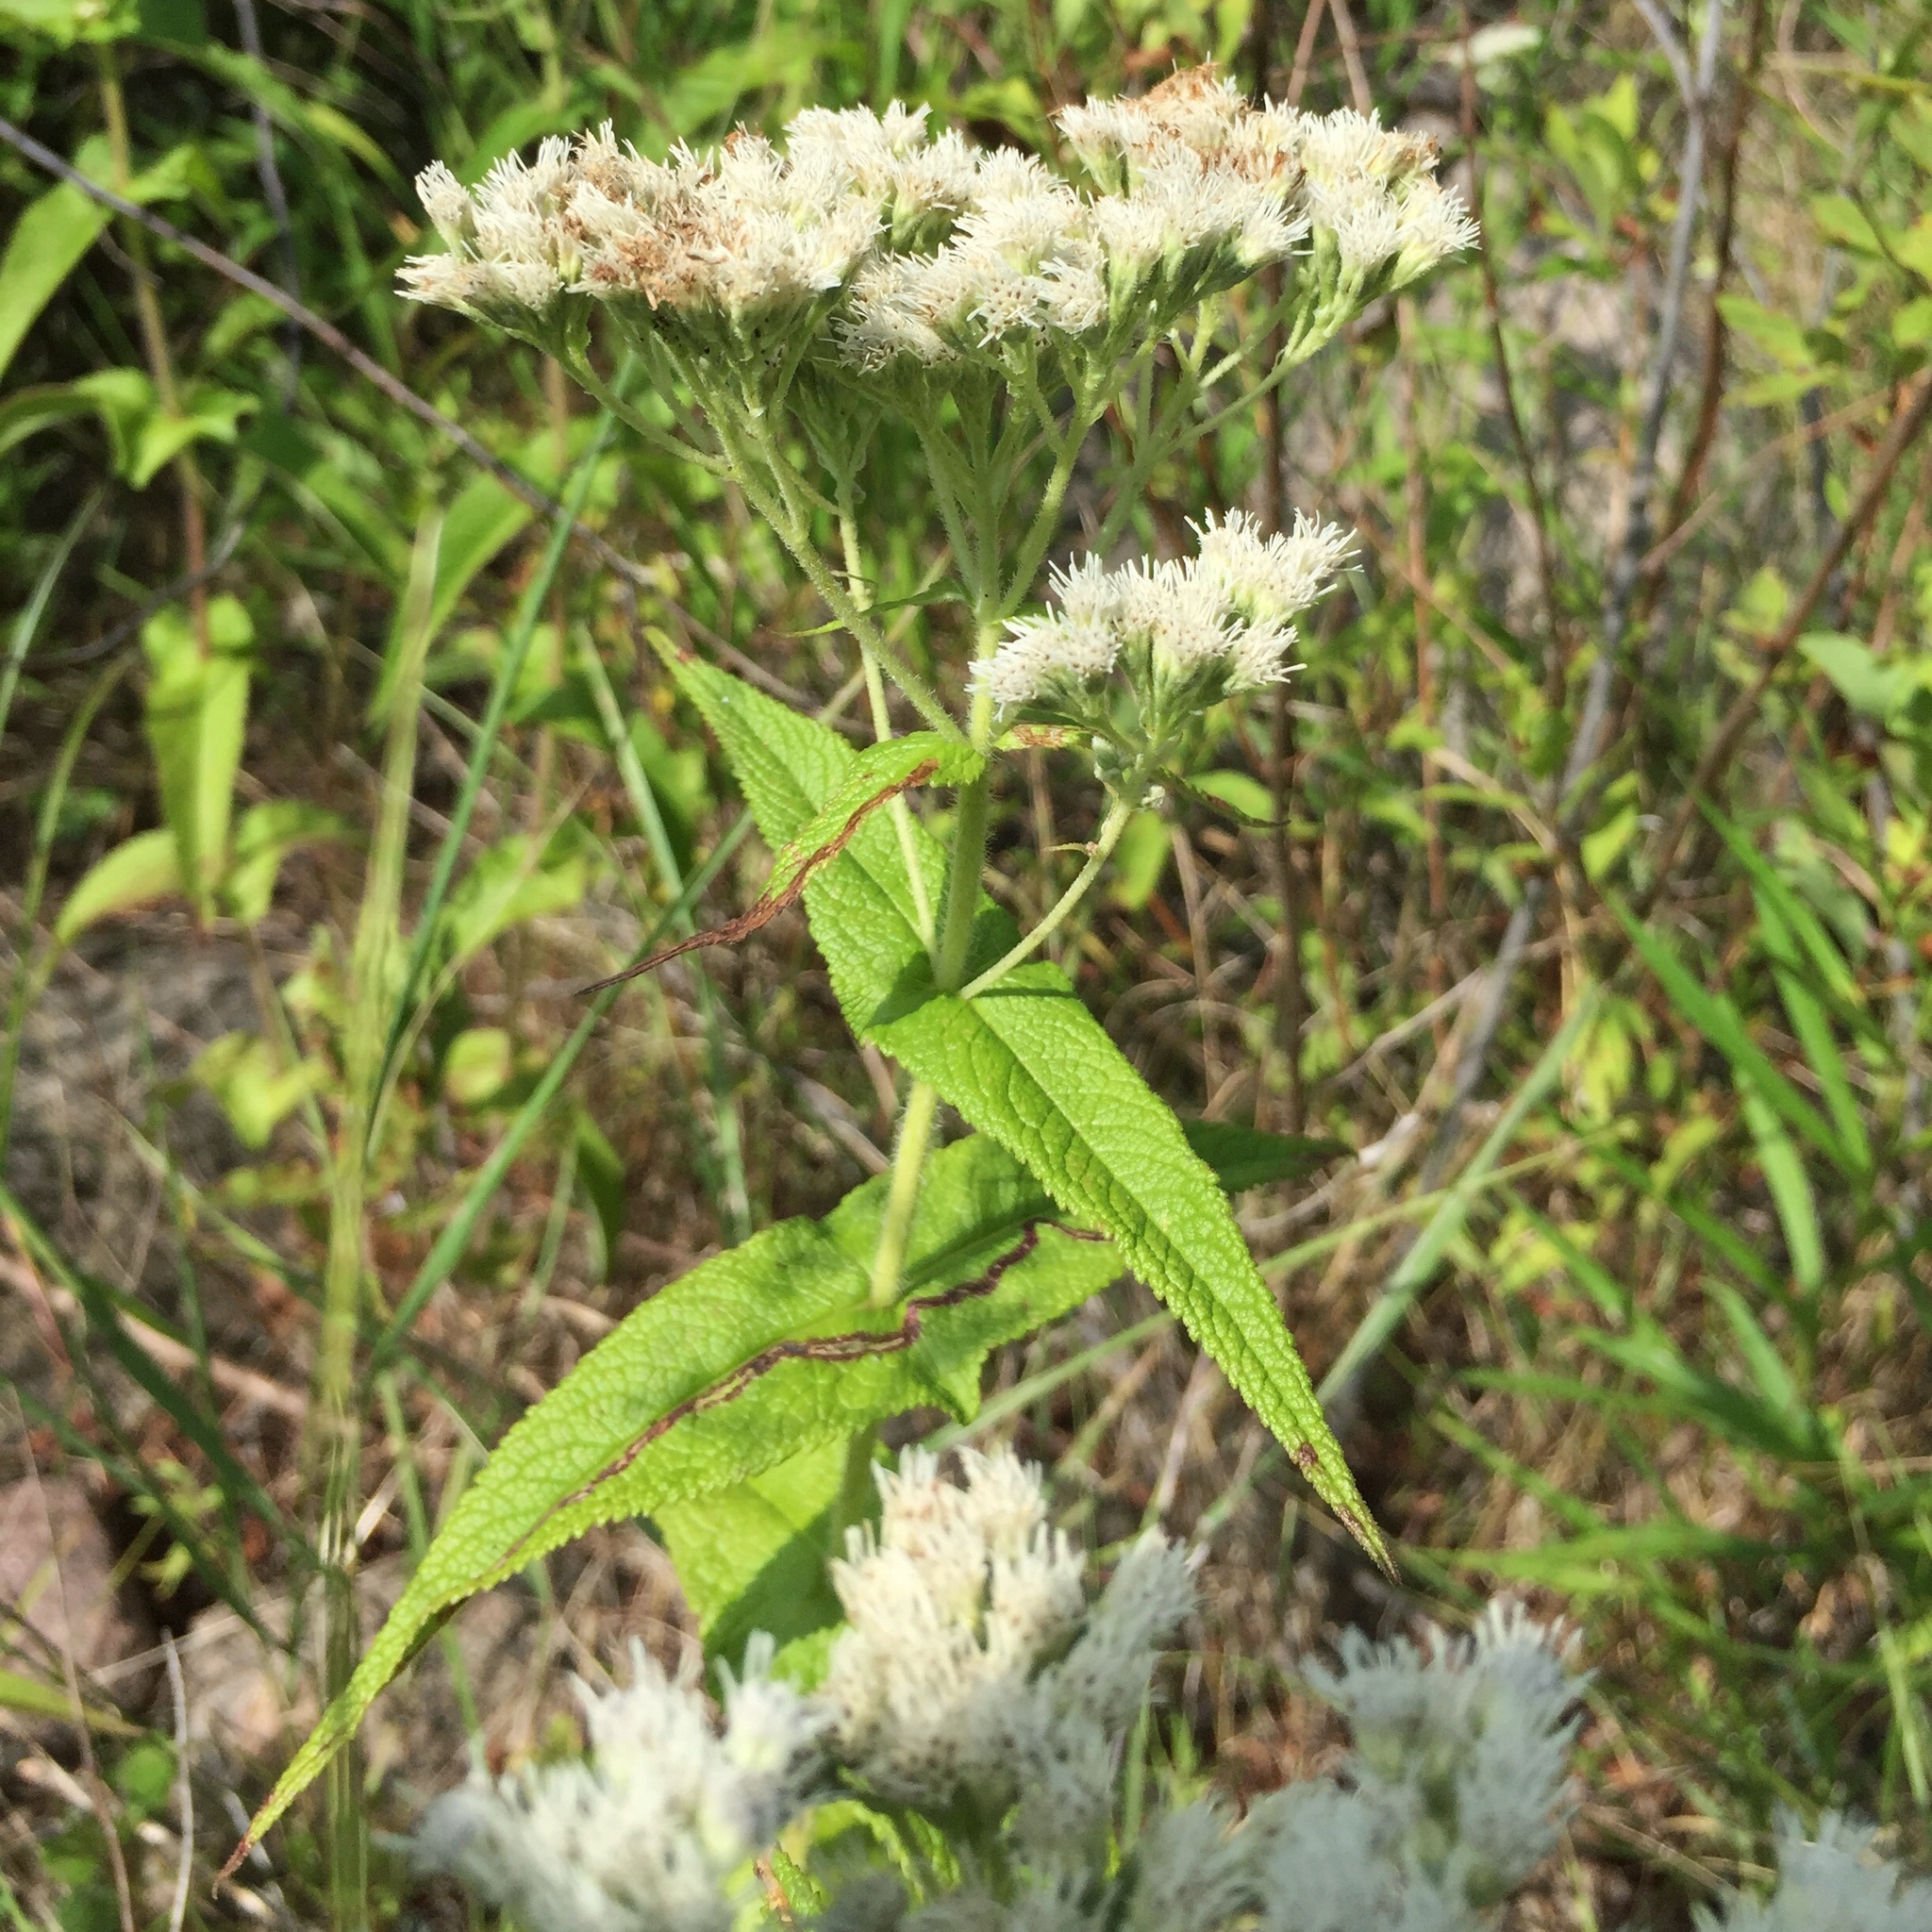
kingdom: Plantae
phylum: Tracheophyta
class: Magnoliopsida
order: Asterales
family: Asteraceae
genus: Eupatorium
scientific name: Eupatorium perfoliatum
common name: Boneset
